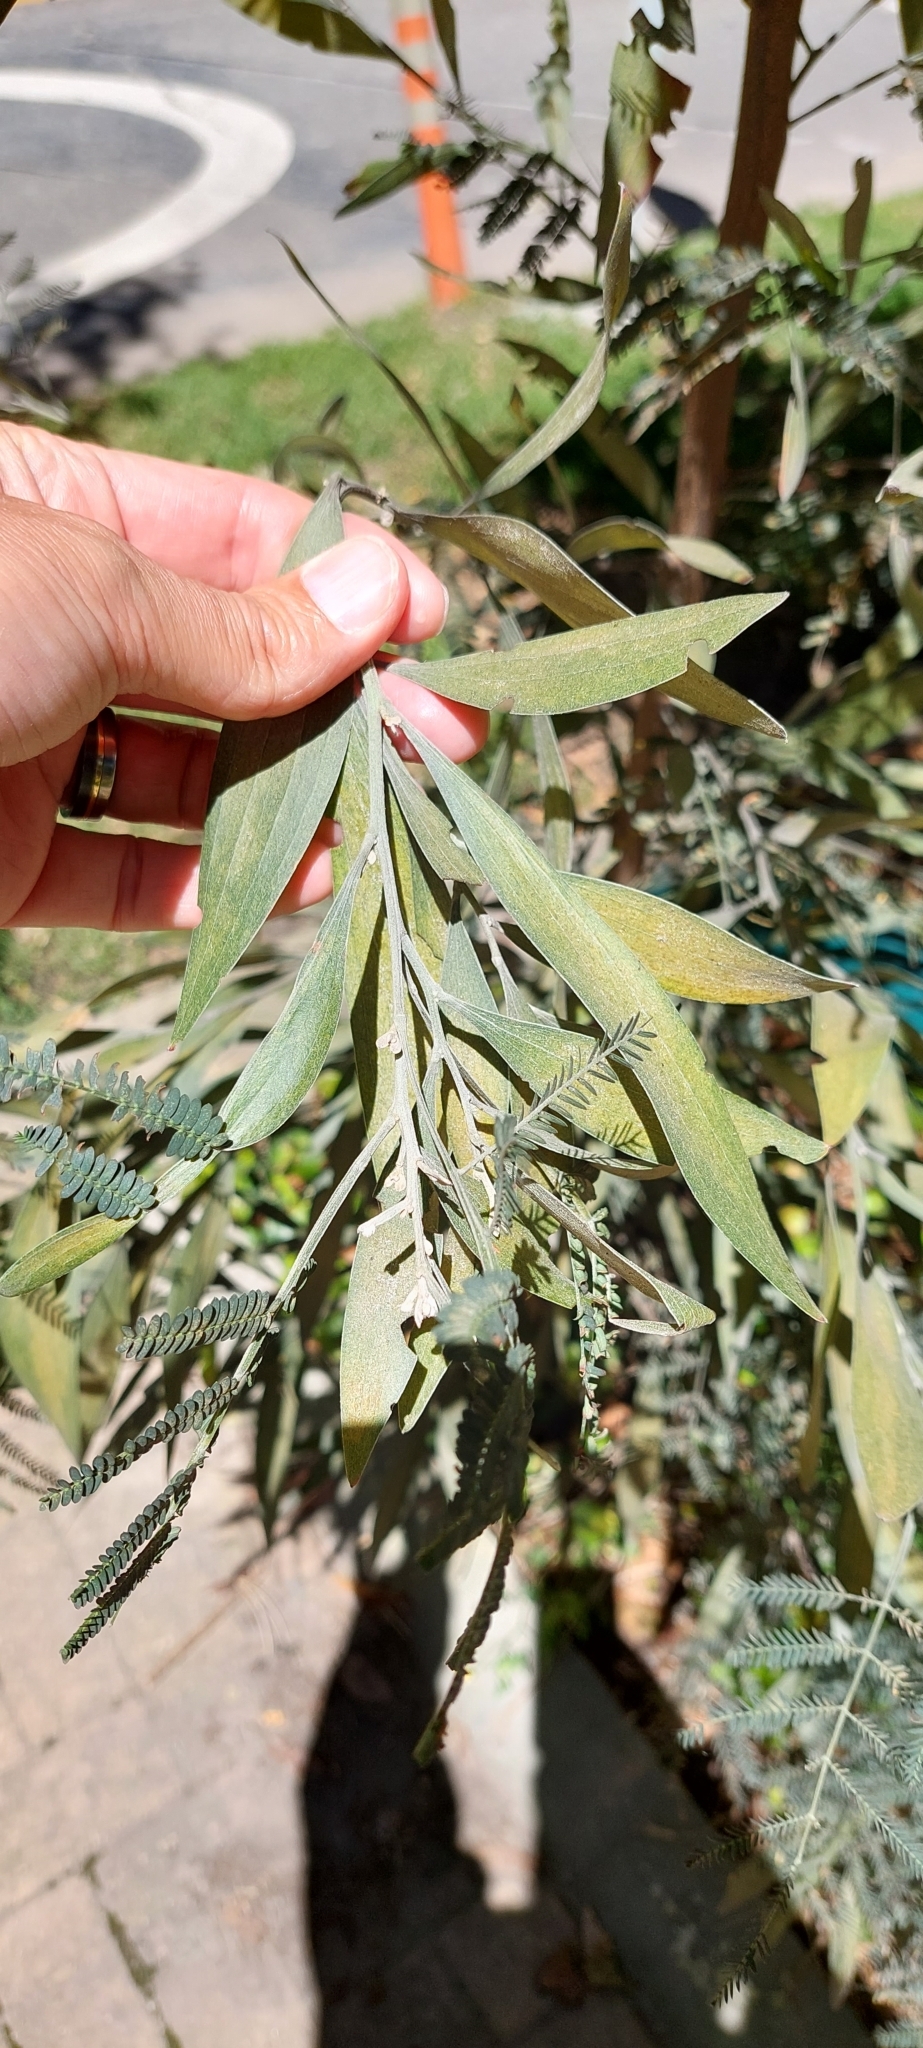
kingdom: Plantae
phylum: Tracheophyta
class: Magnoliopsida
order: Fabales
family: Fabaceae
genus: Acacia
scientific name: Acacia melanoxylon
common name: Blackwood
